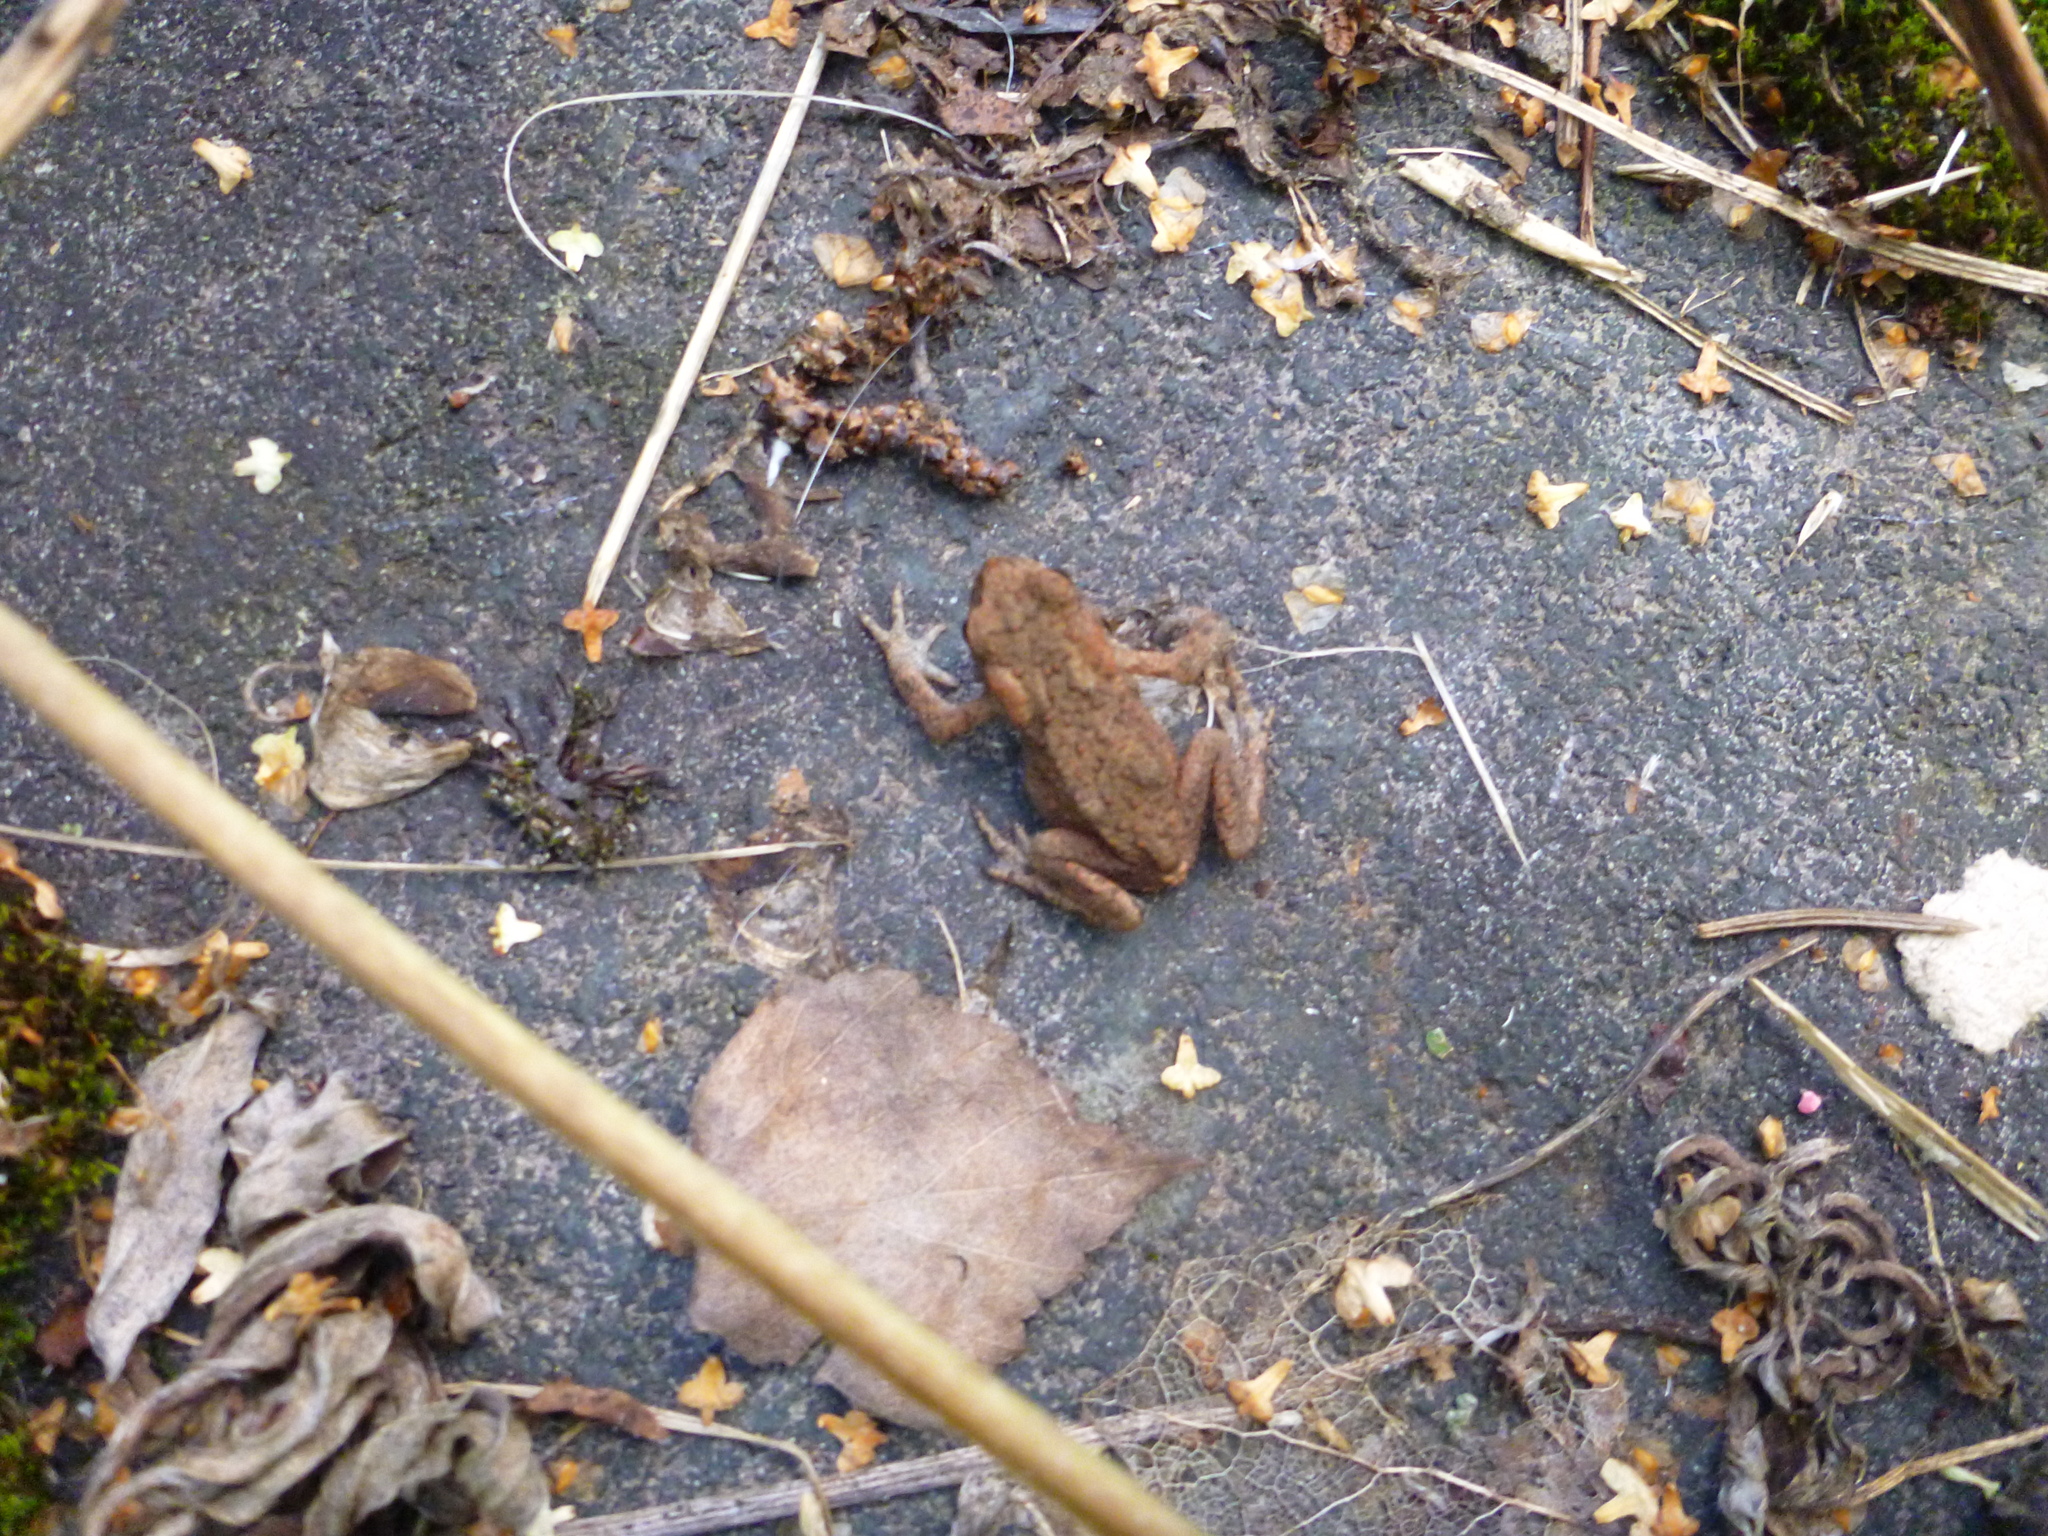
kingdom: Animalia
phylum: Chordata
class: Amphibia
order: Anura
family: Bufonidae
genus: Bufo
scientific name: Bufo bufo
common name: Common toad
